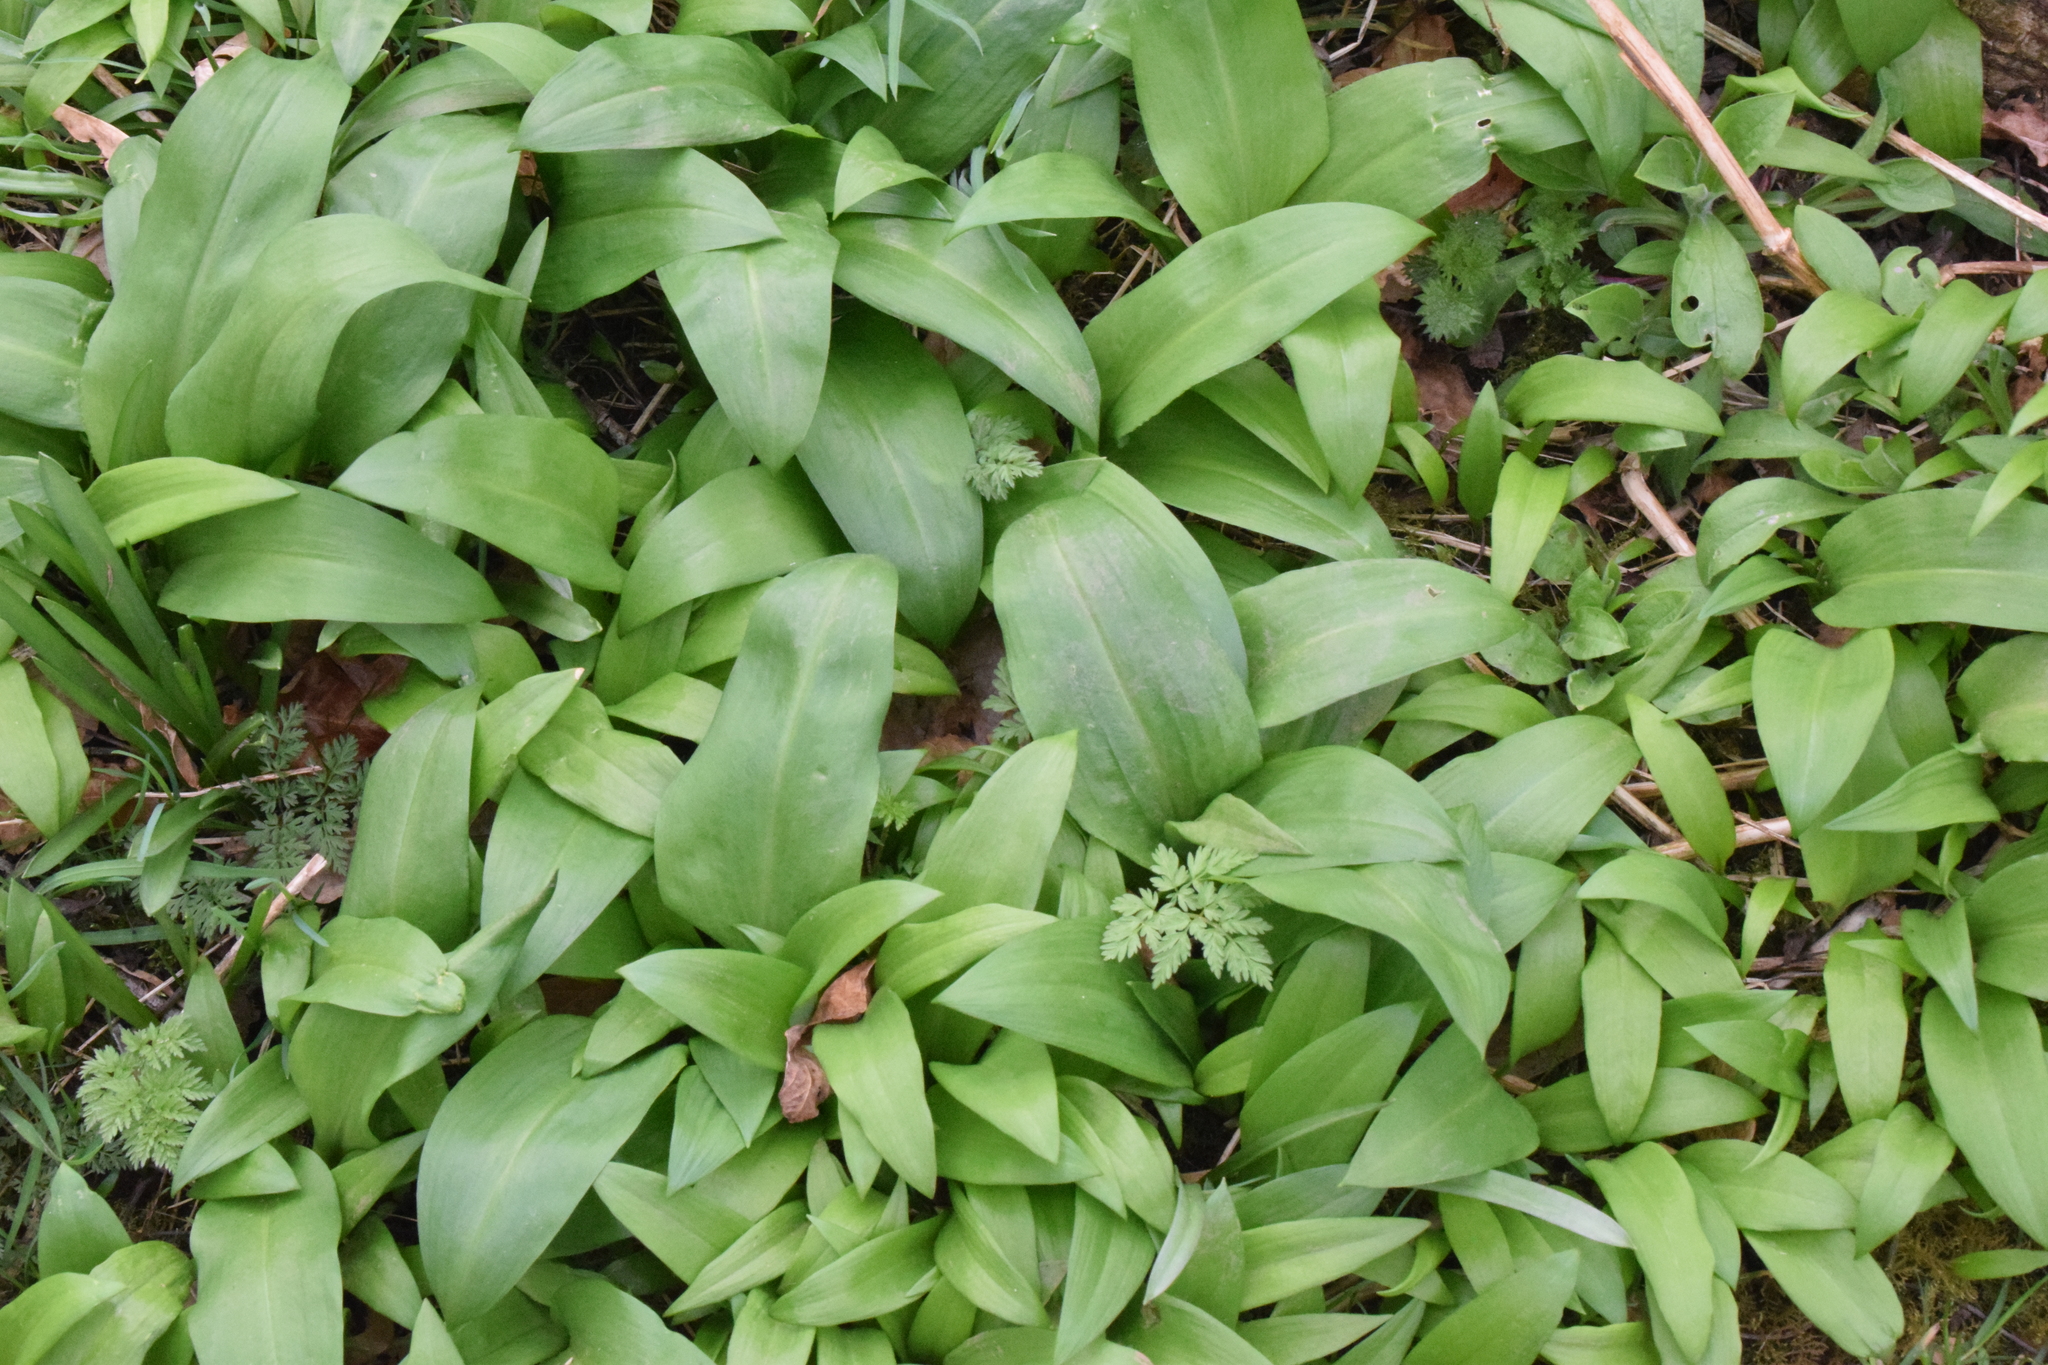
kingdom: Plantae
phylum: Tracheophyta
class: Liliopsida
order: Asparagales
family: Amaryllidaceae
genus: Allium
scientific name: Allium ursinum
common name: Ramsons
